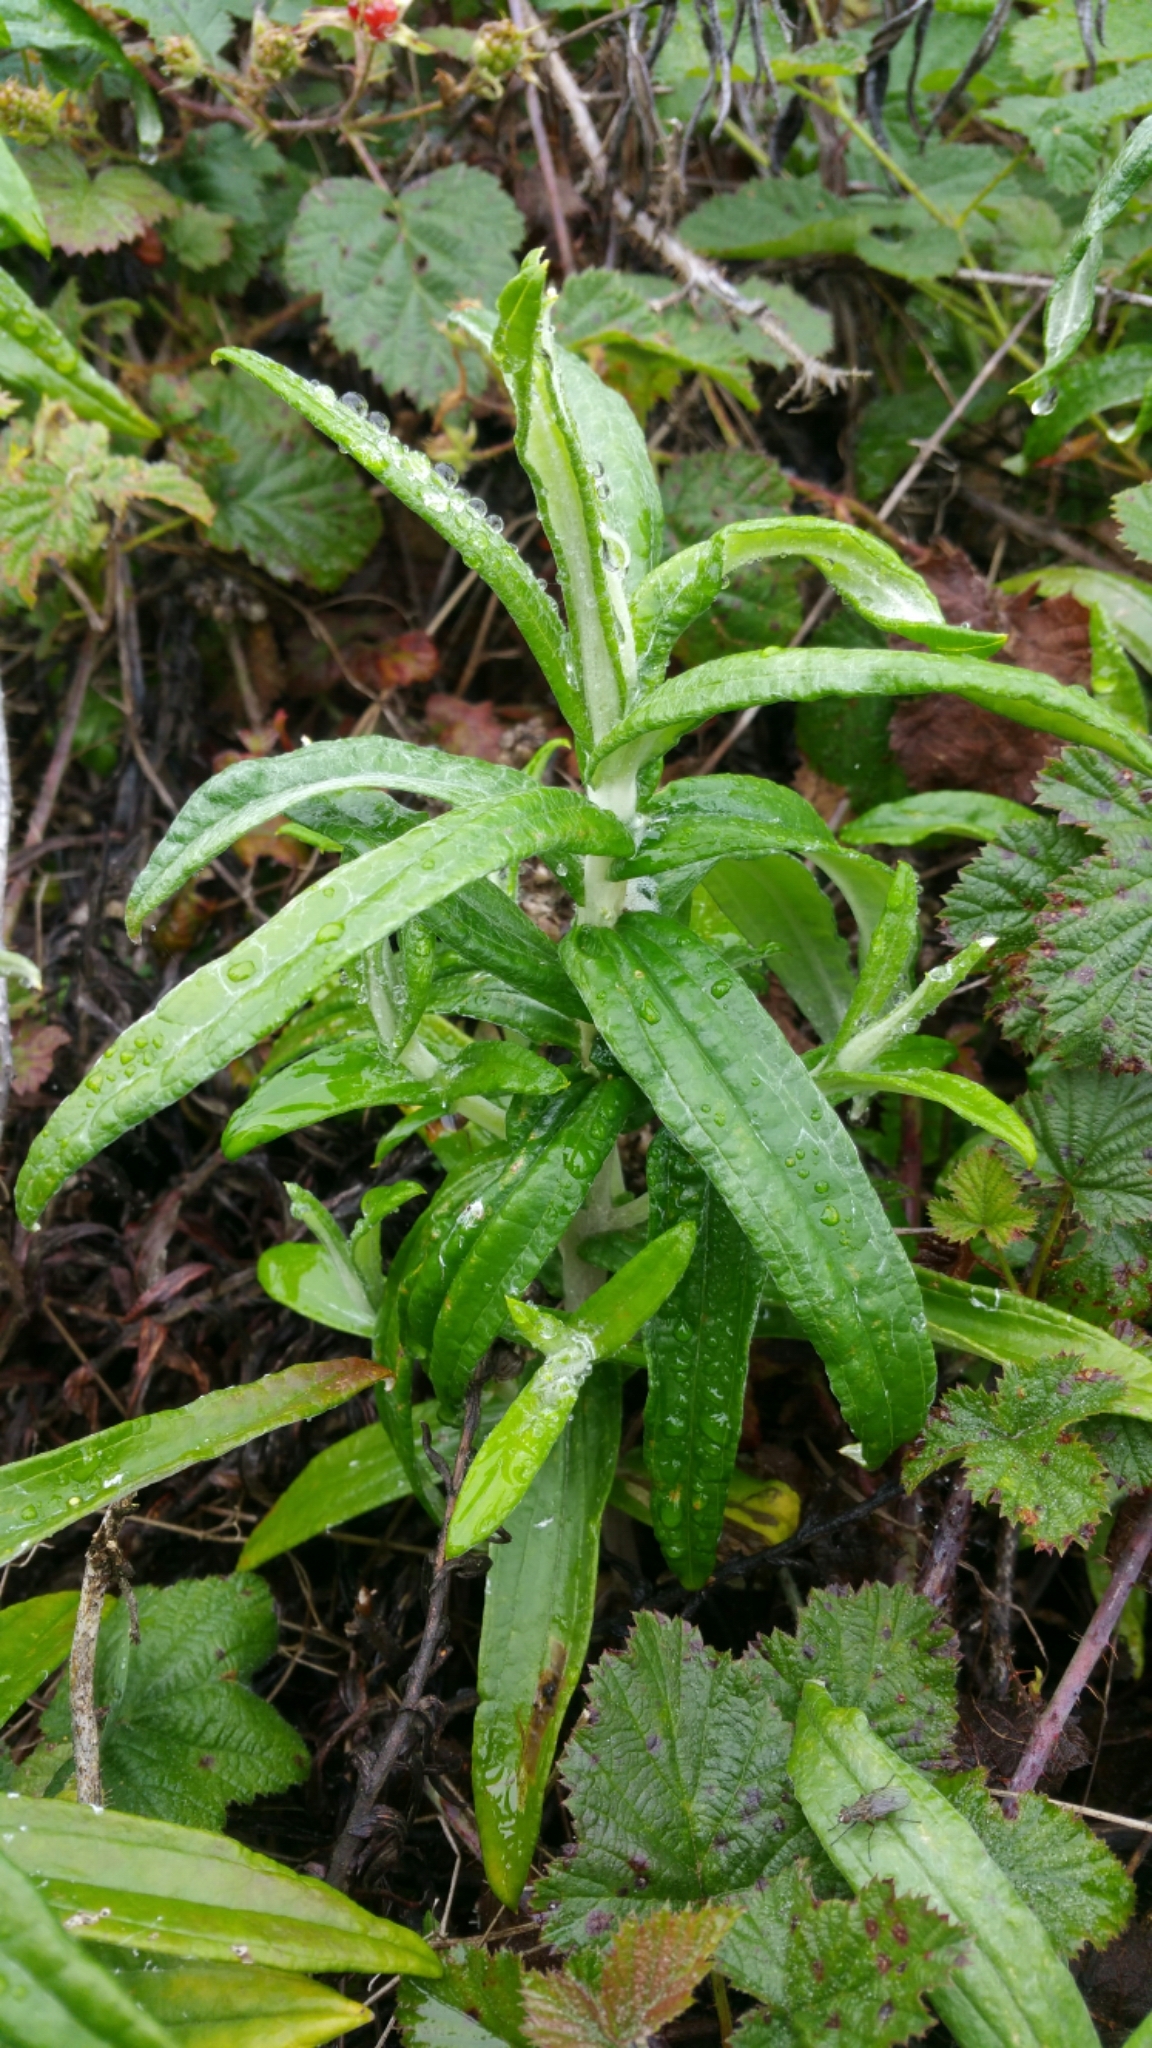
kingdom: Plantae
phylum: Tracheophyta
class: Magnoliopsida
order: Asterales
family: Asteraceae
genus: Anaphalis
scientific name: Anaphalis margaritacea
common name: Pearly everlasting
